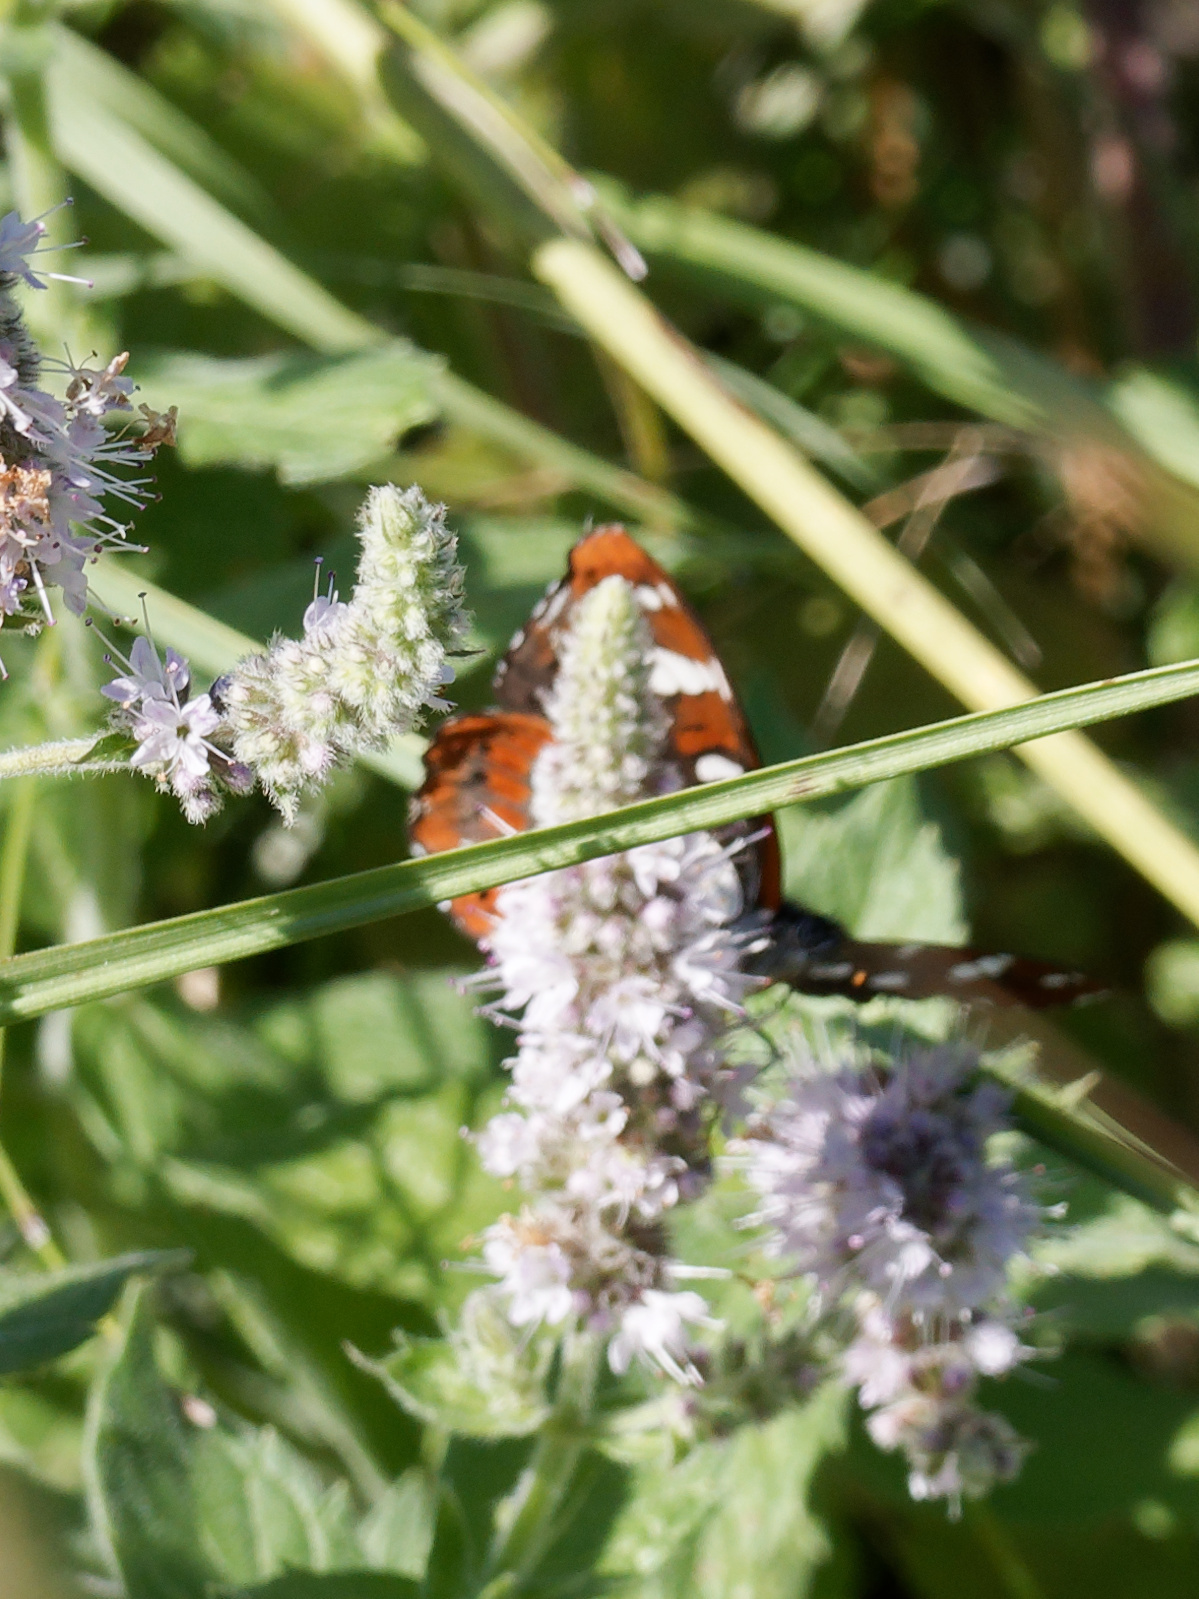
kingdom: Animalia
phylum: Arthropoda
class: Insecta
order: Lepidoptera
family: Nymphalidae
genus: Limenitis
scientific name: Limenitis reducta
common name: Southern white admiral
